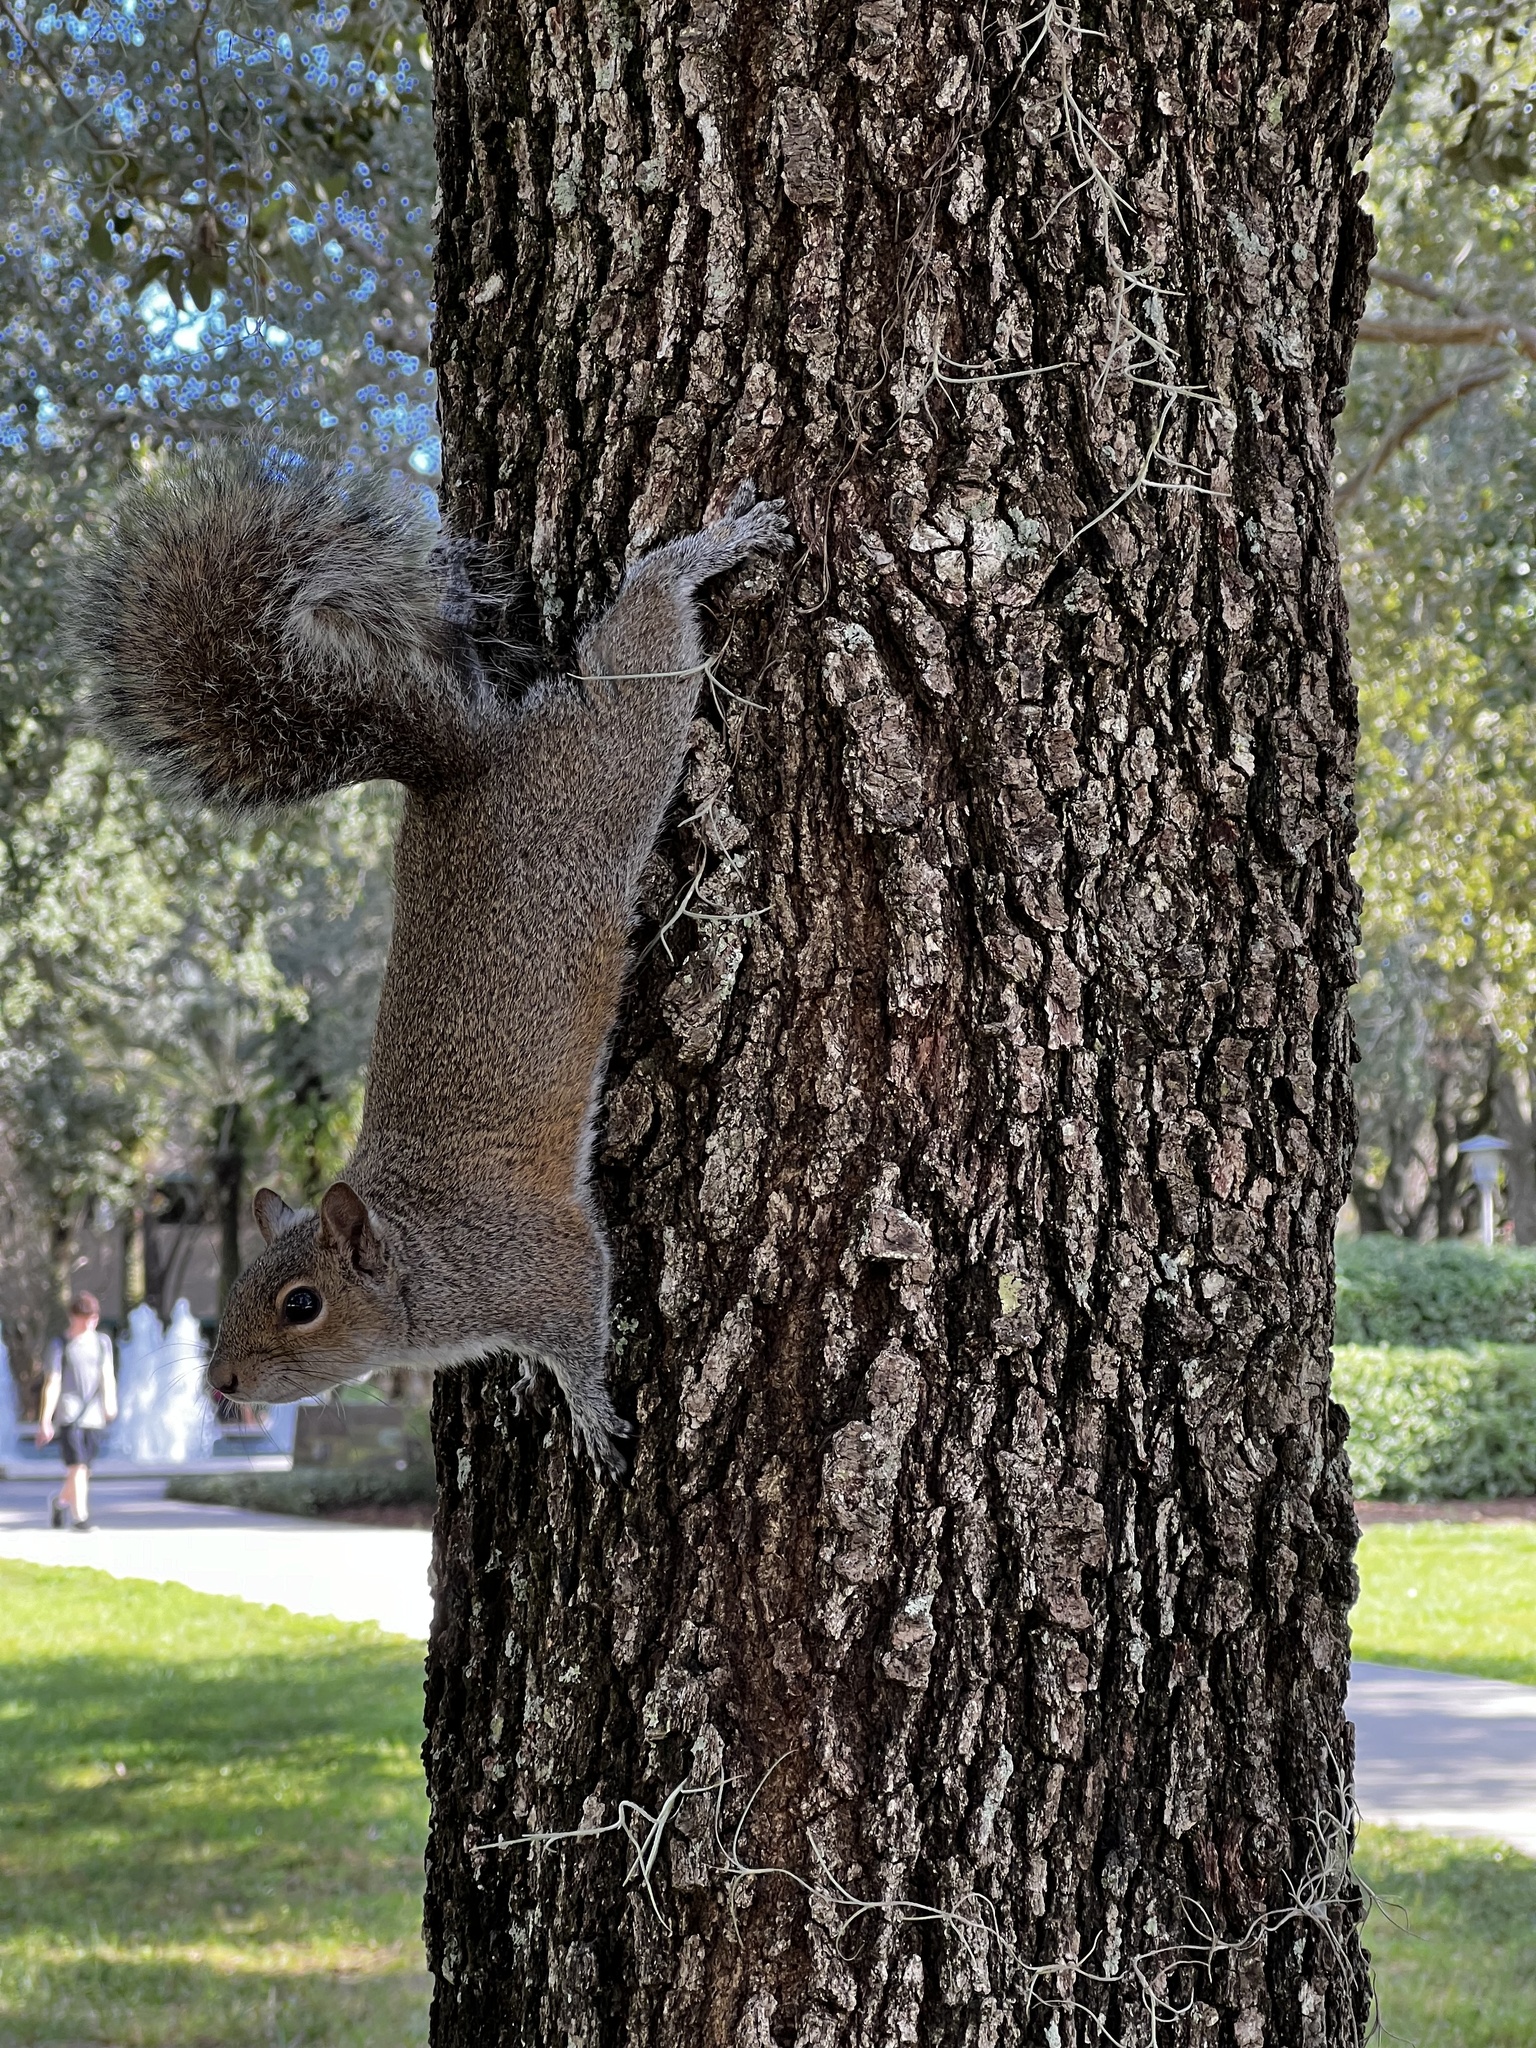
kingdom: Animalia
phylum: Chordata
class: Mammalia
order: Rodentia
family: Sciuridae
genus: Sciurus
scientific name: Sciurus carolinensis
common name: Eastern gray squirrel
